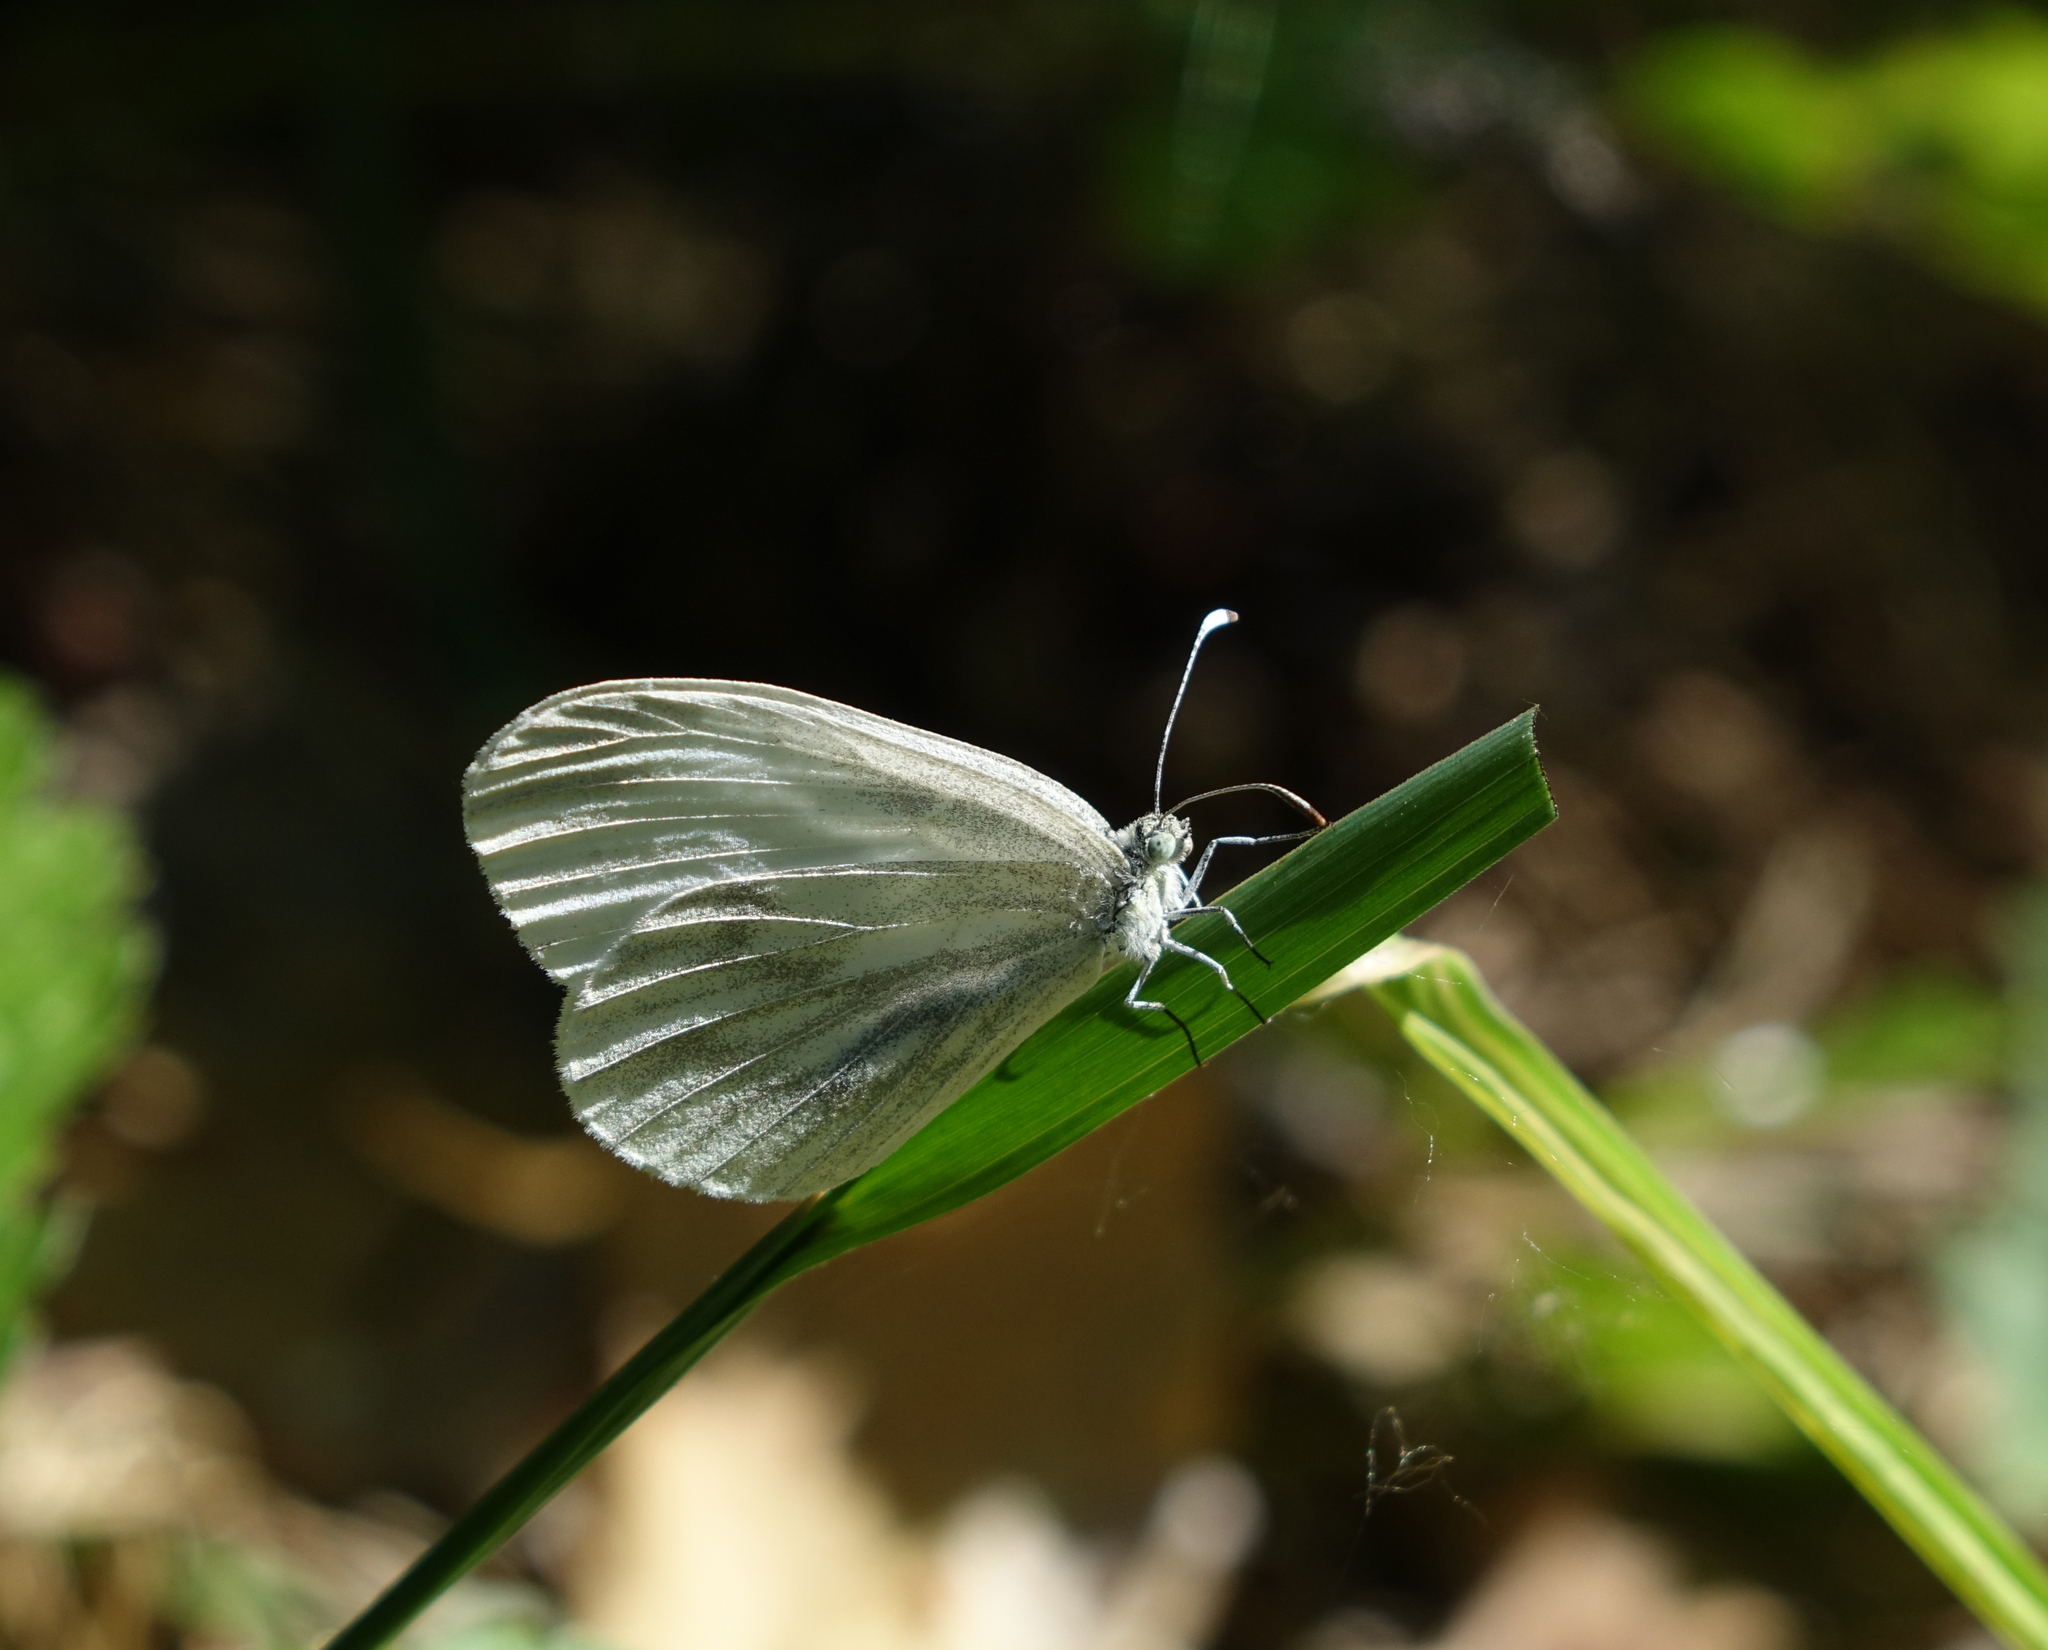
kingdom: Animalia
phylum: Arthropoda
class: Insecta
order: Lepidoptera
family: Pieridae
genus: Leptidea
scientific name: Leptidea morsei
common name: Fenton's wood white
